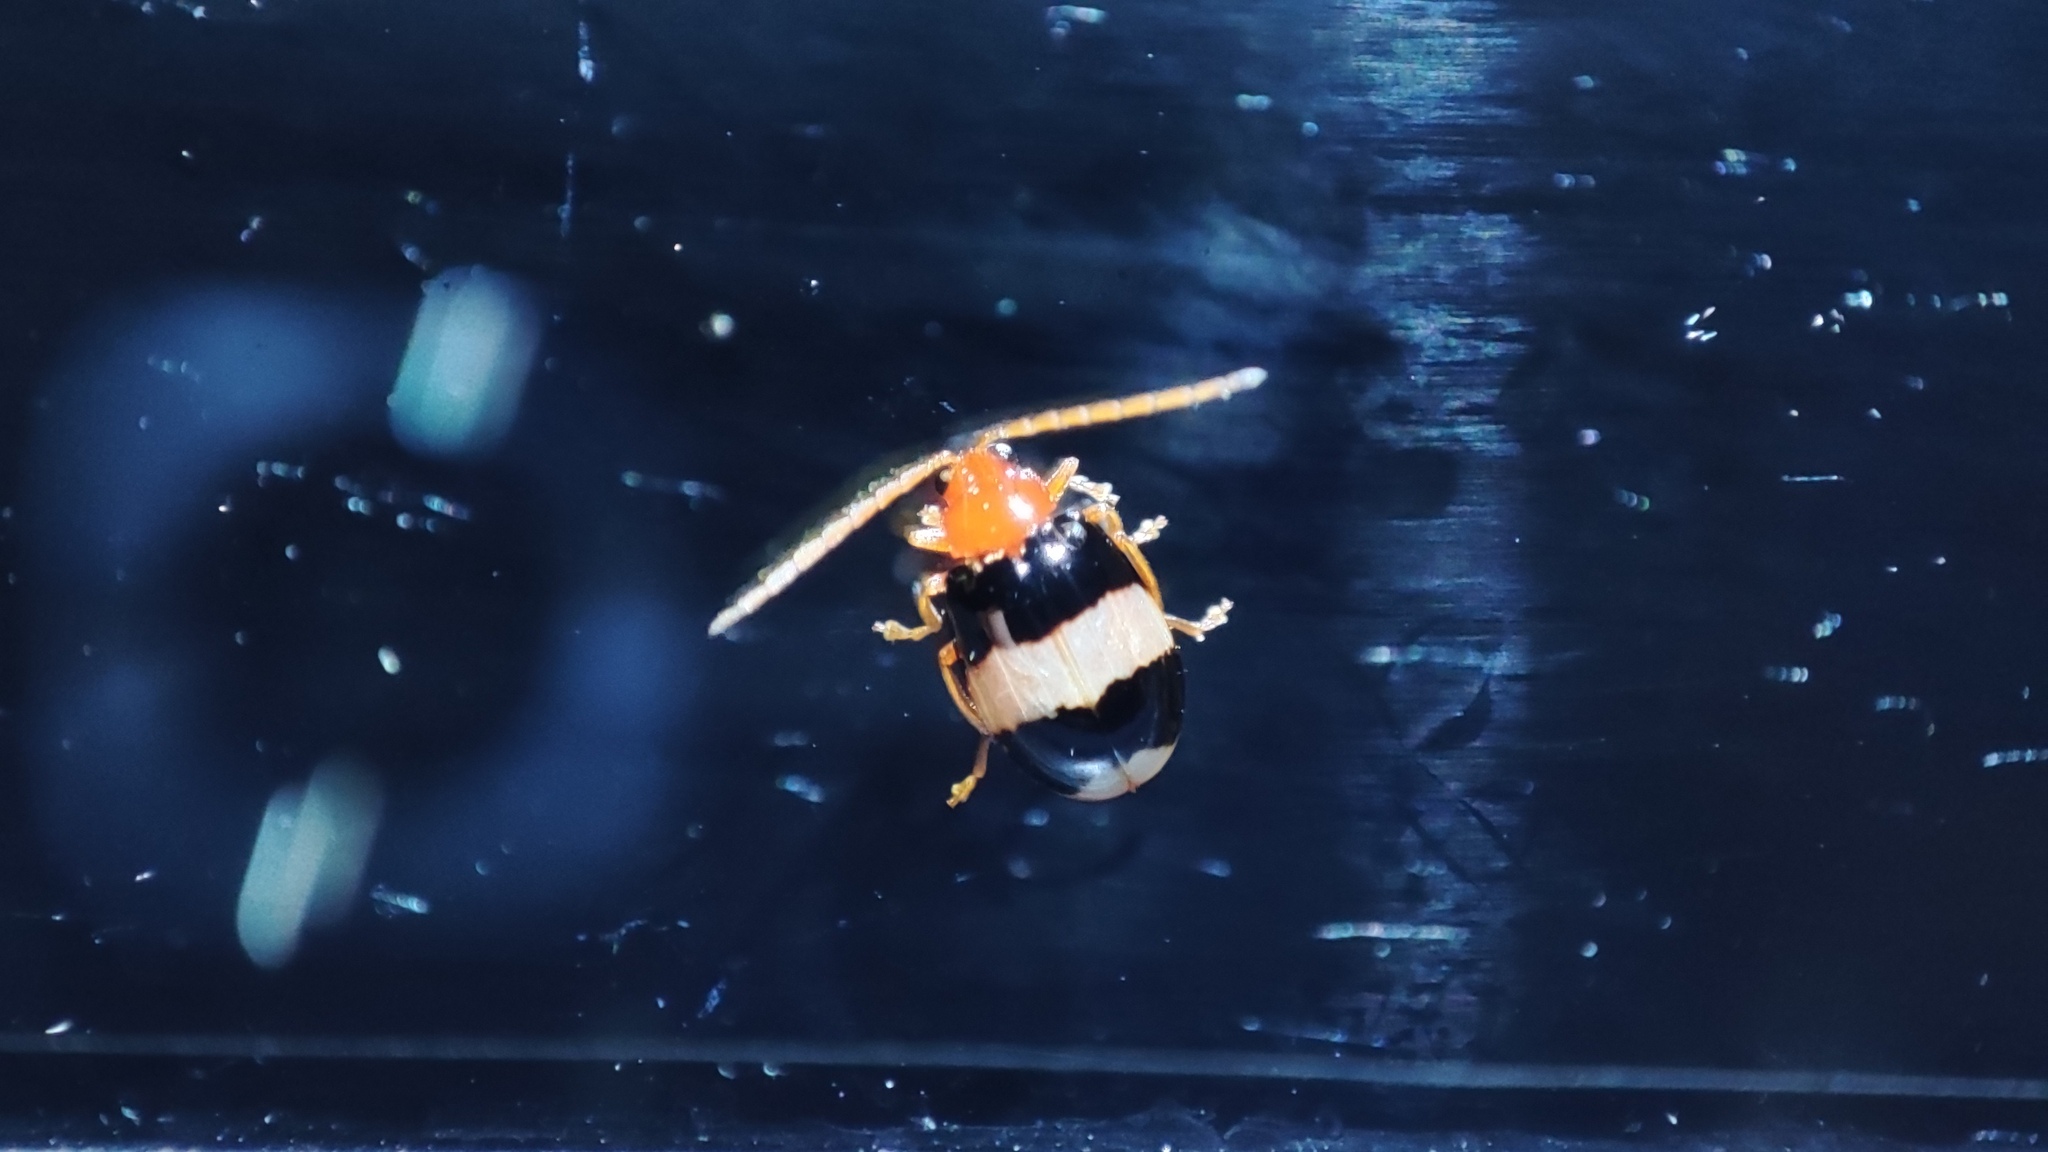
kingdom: Animalia
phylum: Arthropoda
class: Insecta
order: Coleoptera
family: Chrysomelidae
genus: Monolepta
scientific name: Monolepta
